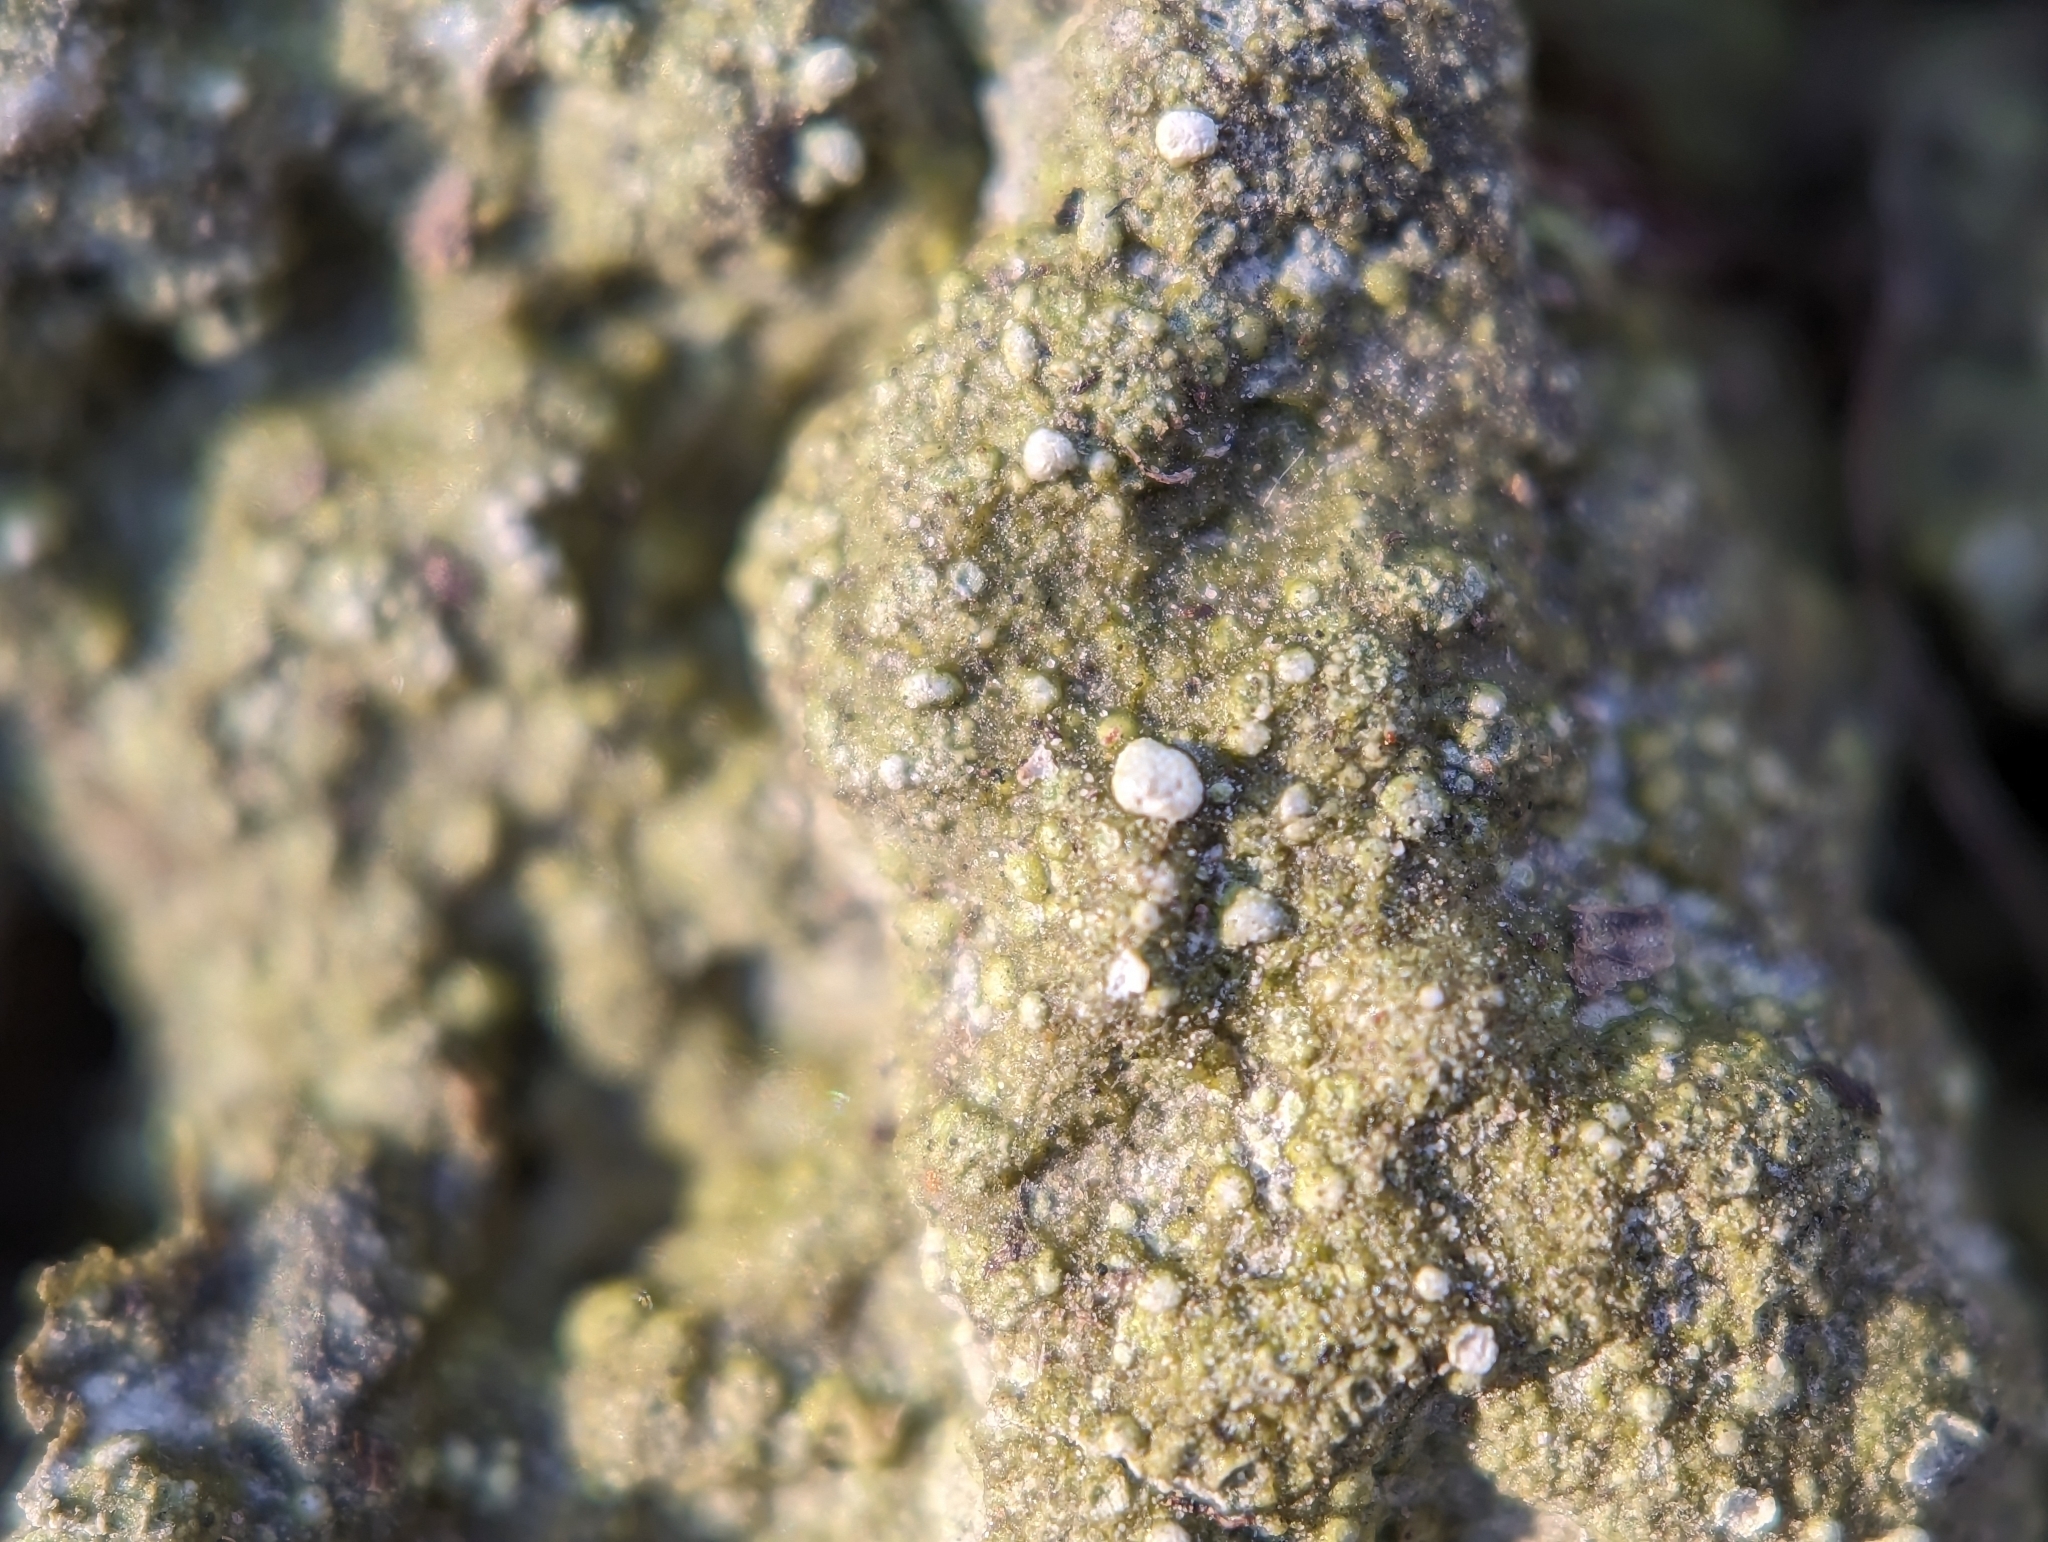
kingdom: Fungi
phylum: Ascomycota
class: Lecanoromycetes
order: Pertusariales
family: Icmadophilaceae
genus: Dibaeis
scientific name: Dibaeis baeomyces
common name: Pink earth lichen
